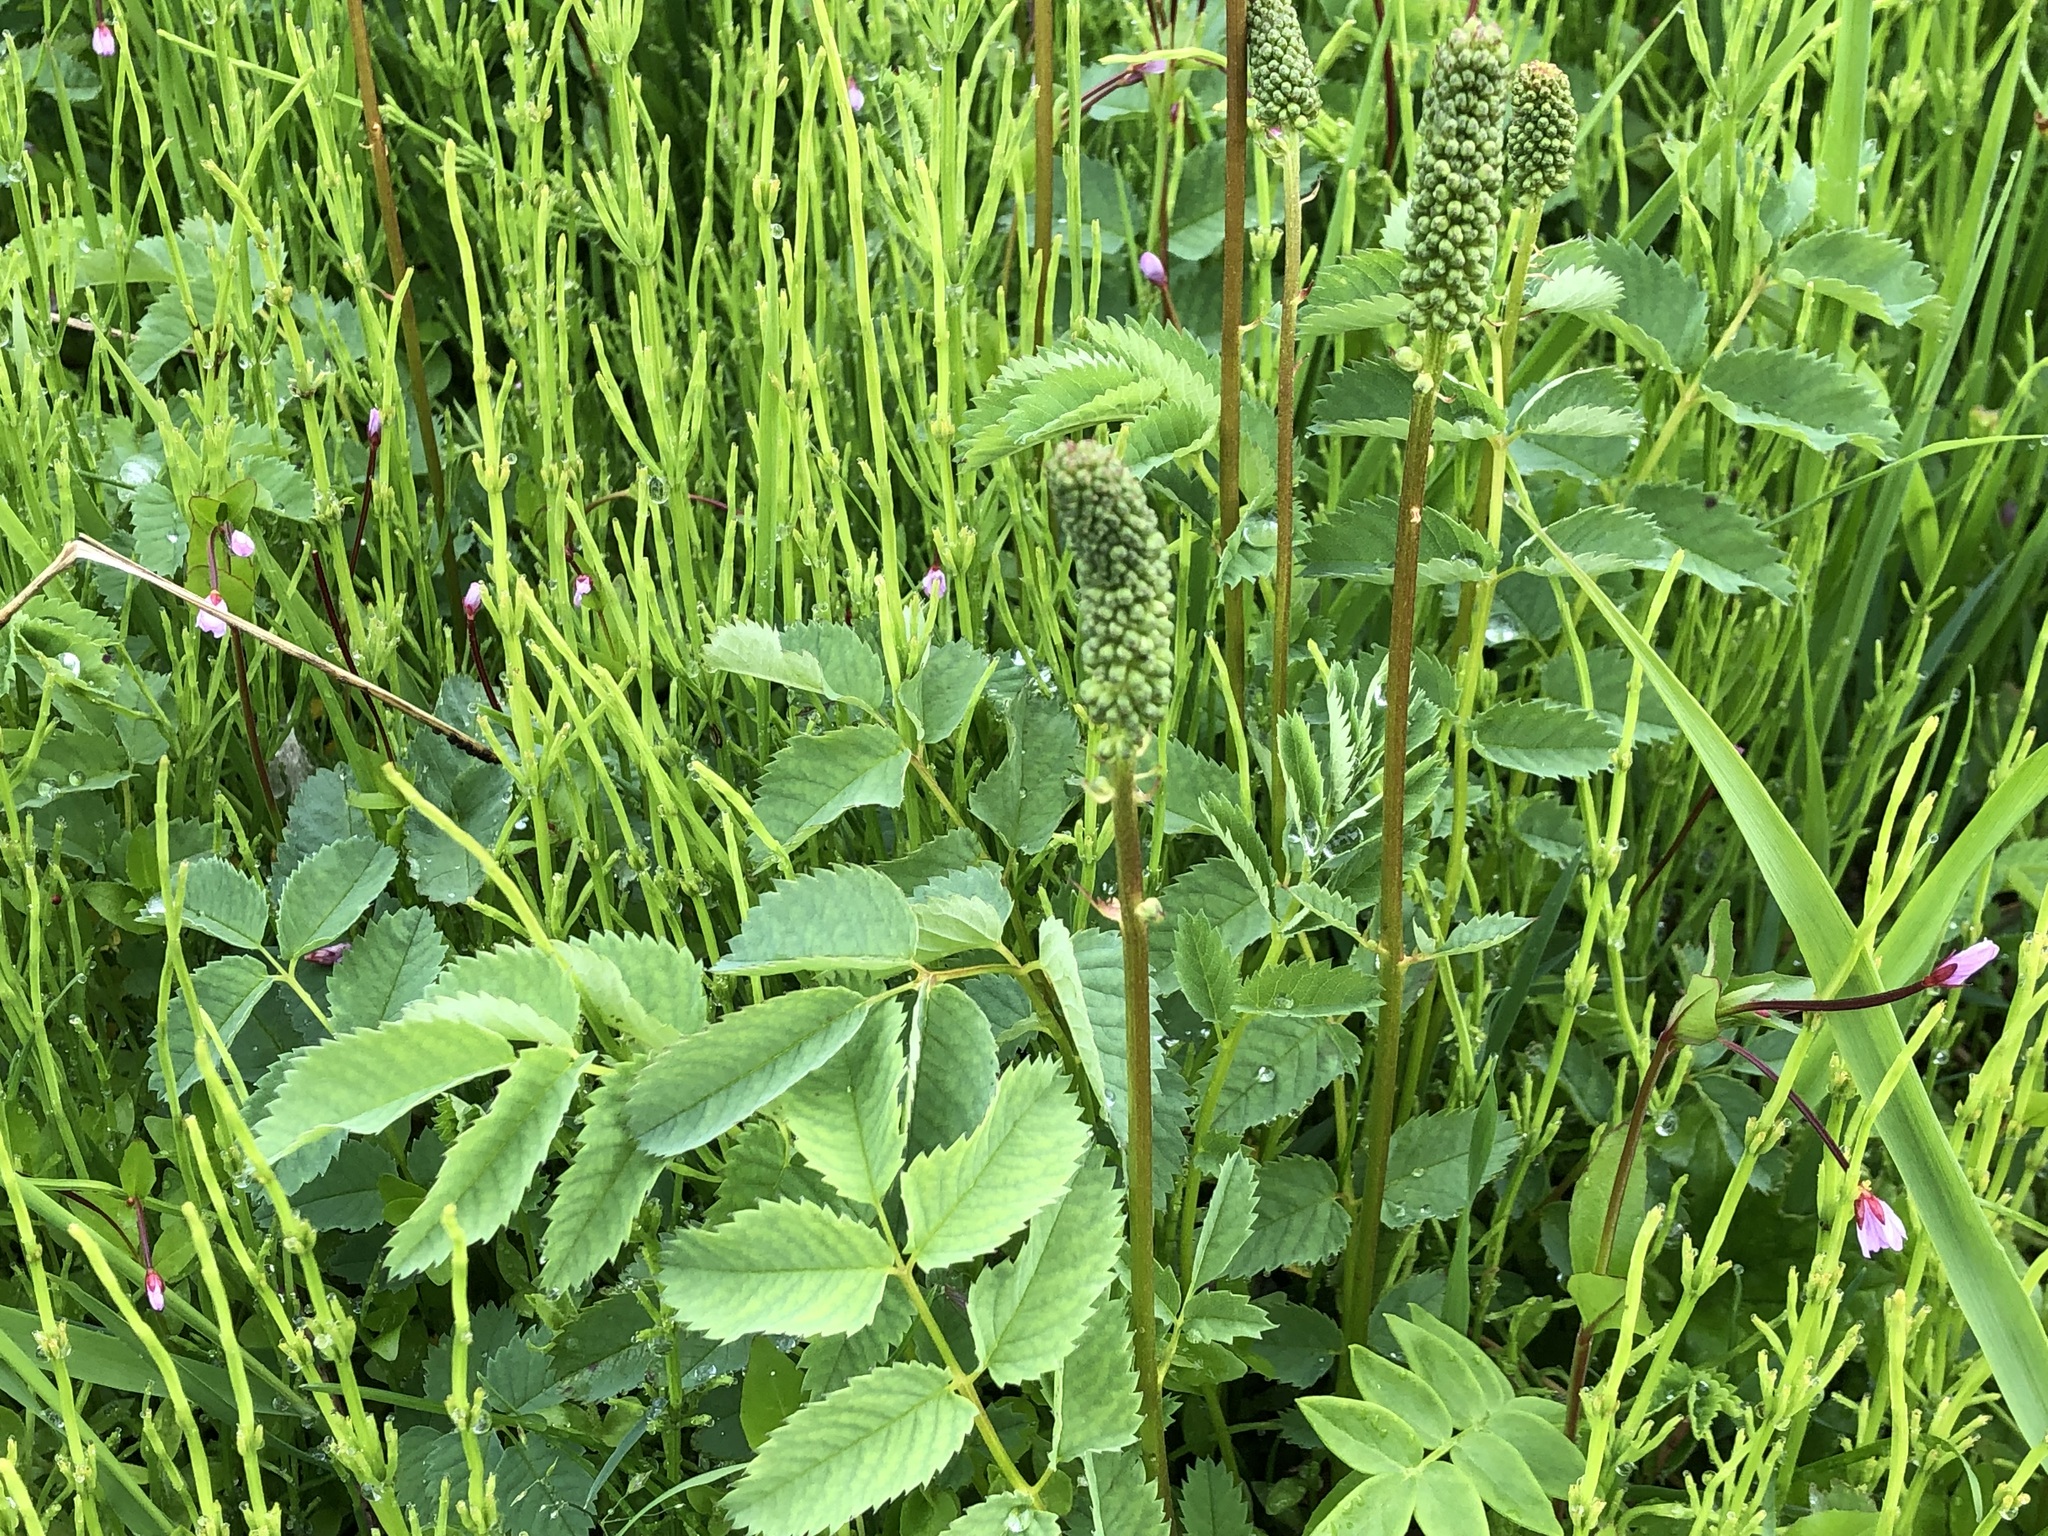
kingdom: Plantae
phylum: Tracheophyta
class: Magnoliopsida
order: Rosales
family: Rosaceae
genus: Sanguisorba
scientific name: Sanguisorba stipulata
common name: Sitka burnet
